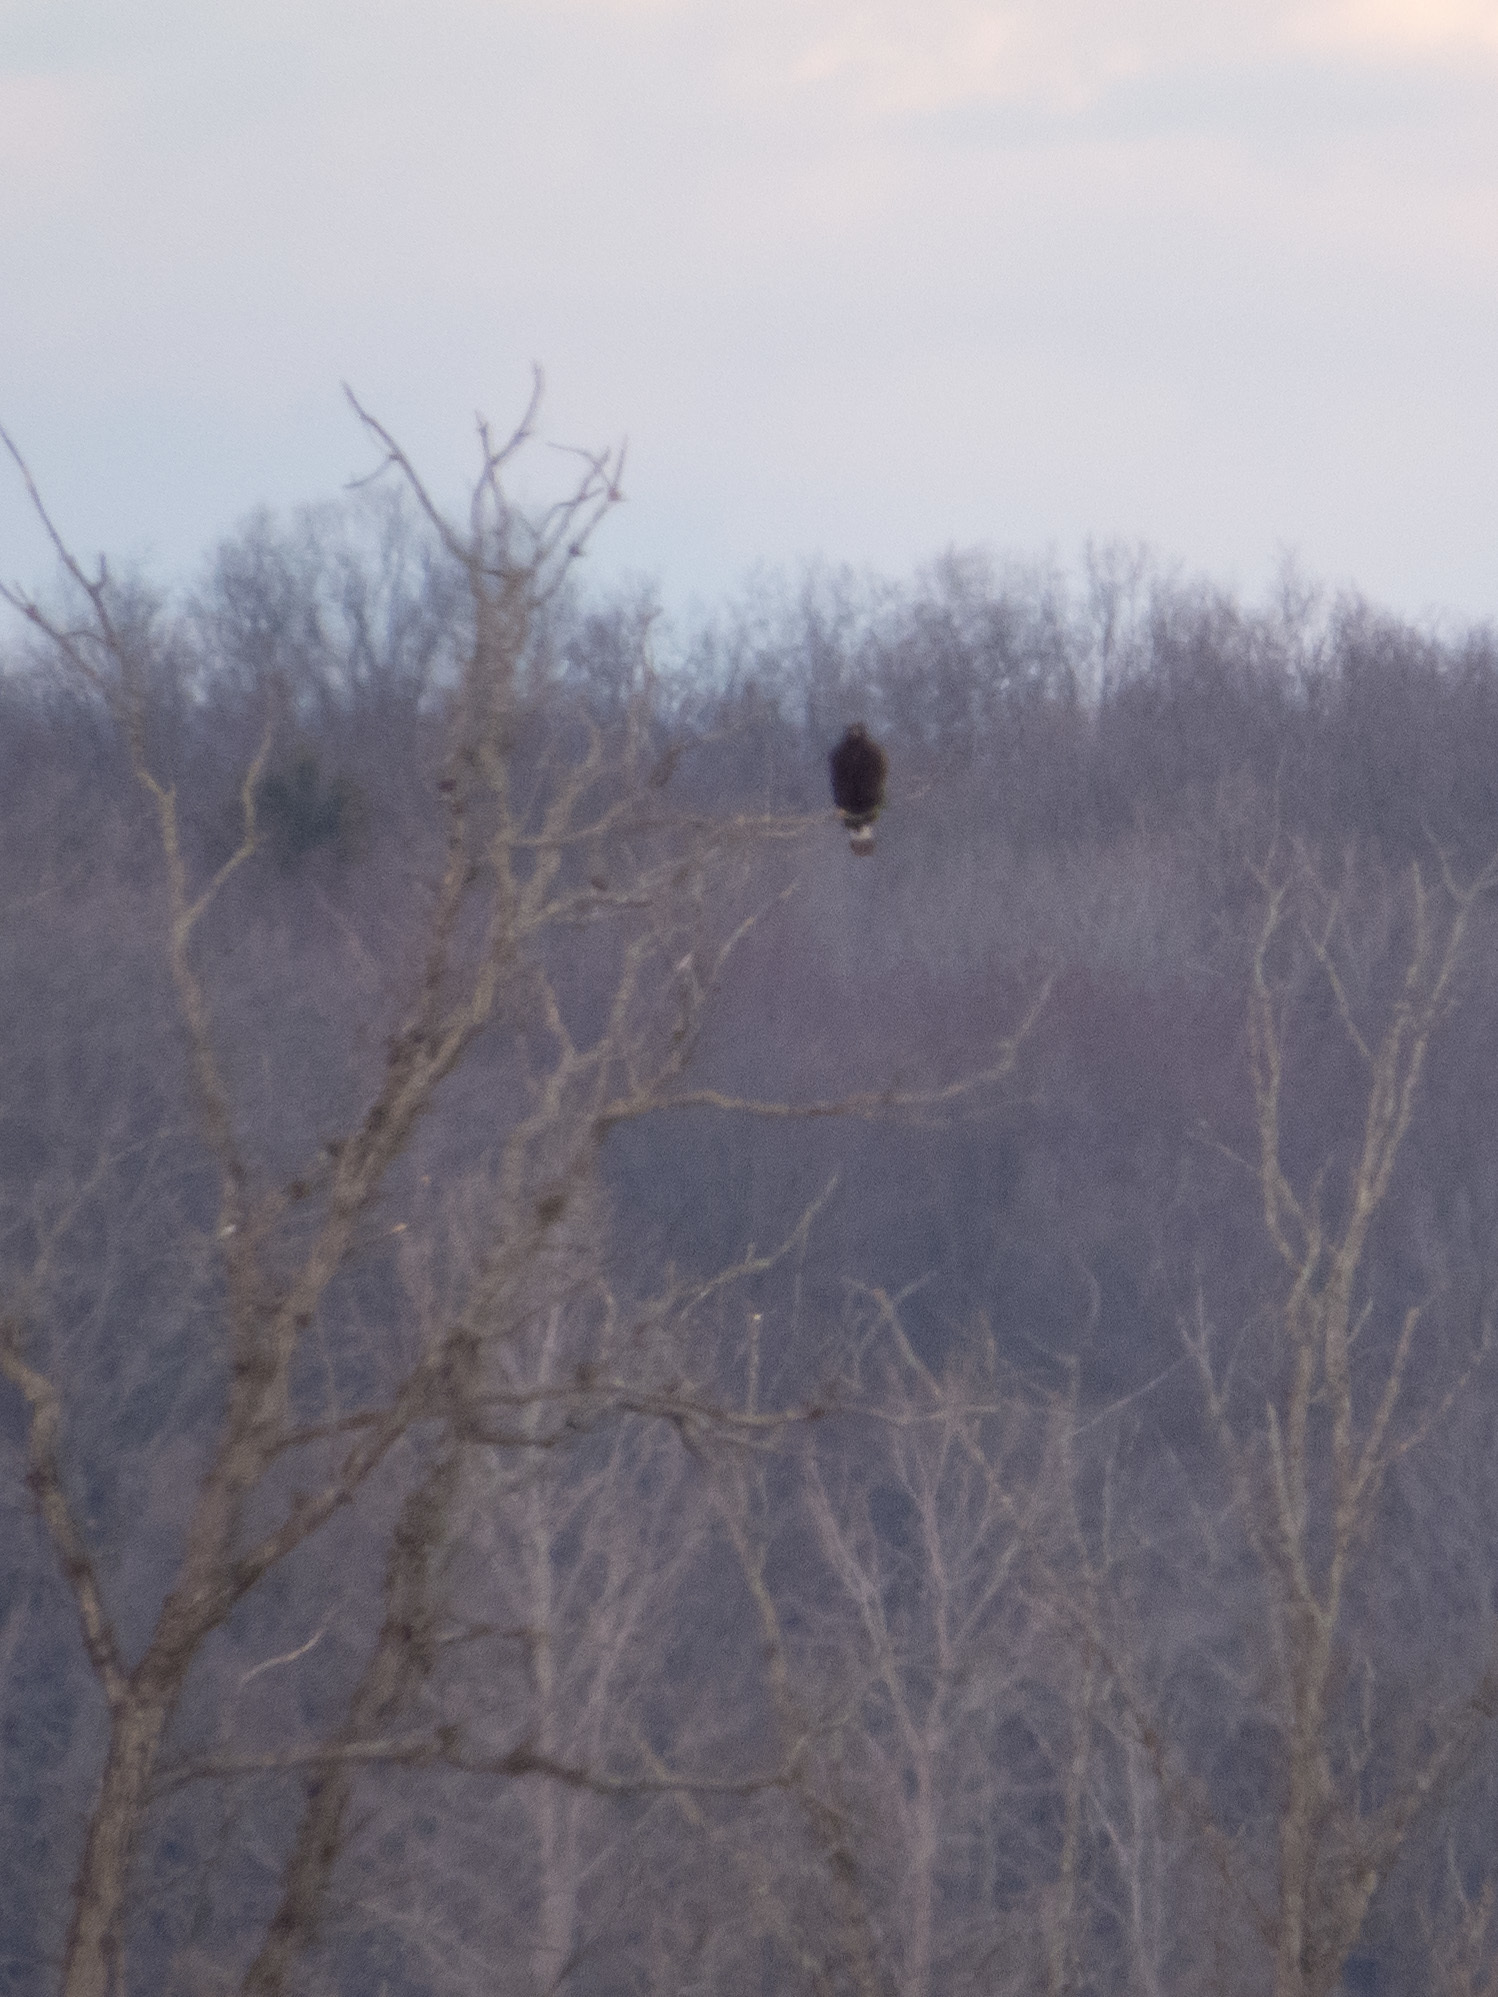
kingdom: Animalia
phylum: Chordata
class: Aves
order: Accipitriformes
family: Accipitridae
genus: Buteo
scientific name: Buteo lagopus
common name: Rough-legged buzzard
